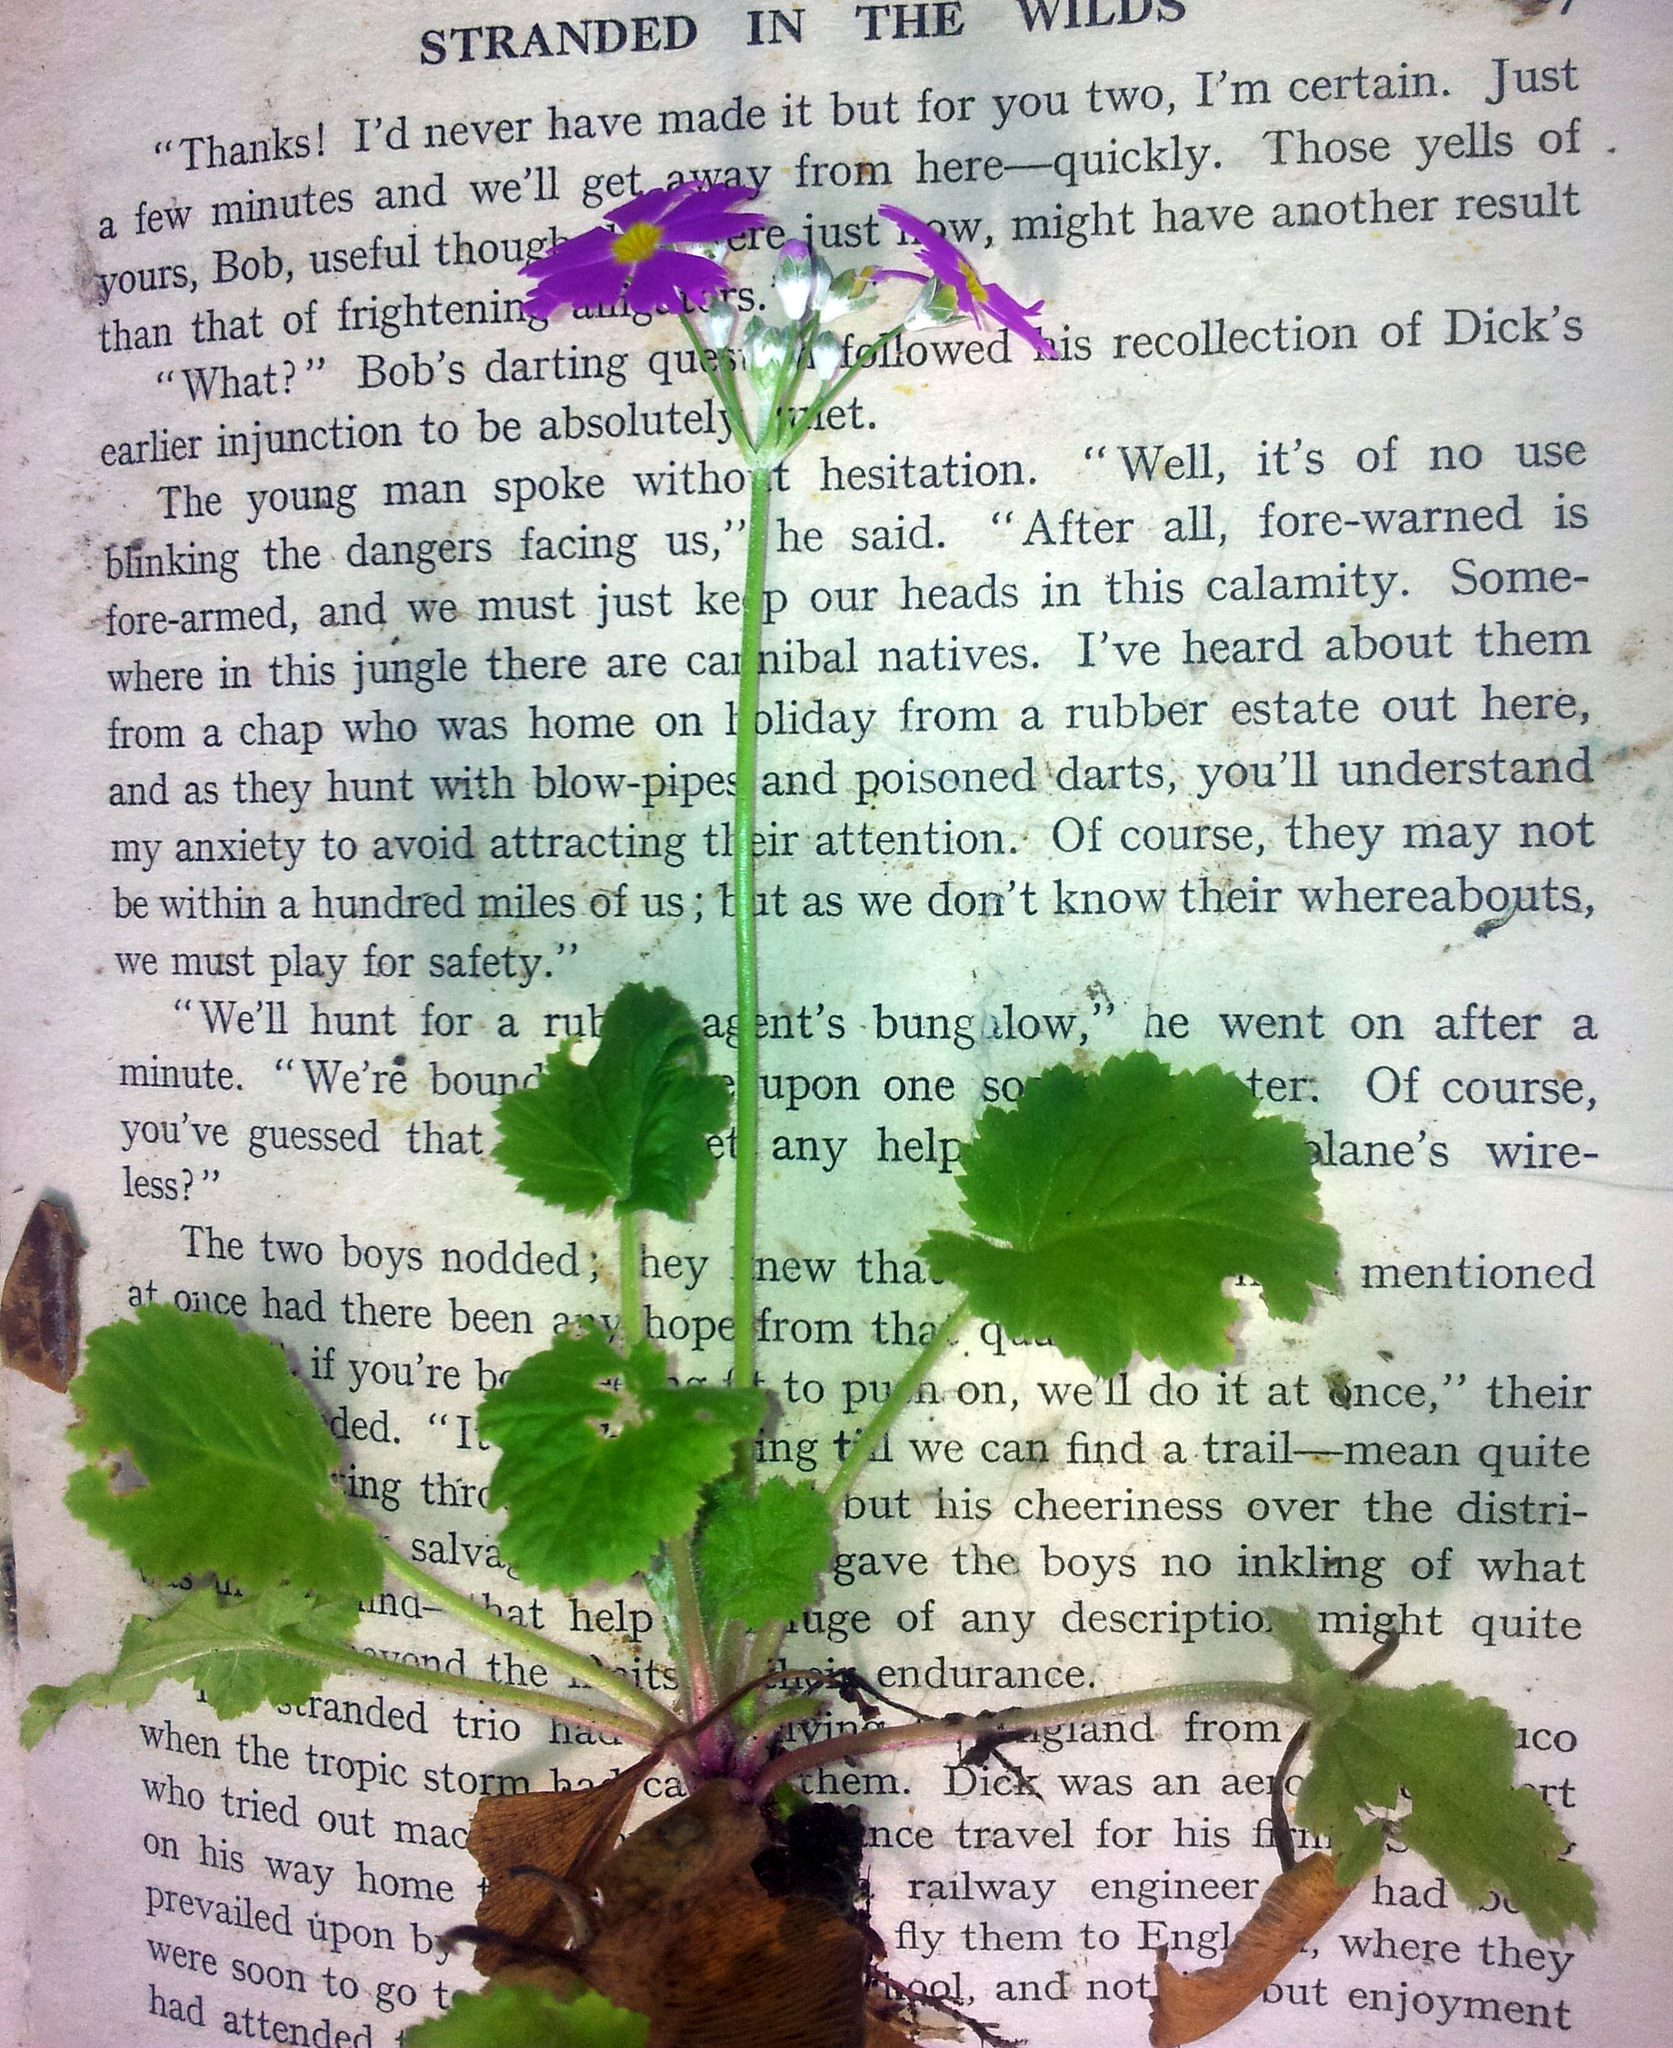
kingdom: Plantae
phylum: Tracheophyta
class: Magnoliopsida
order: Ericales
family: Primulaceae
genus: Primula
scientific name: Primula malacoides
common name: Baby primrose
